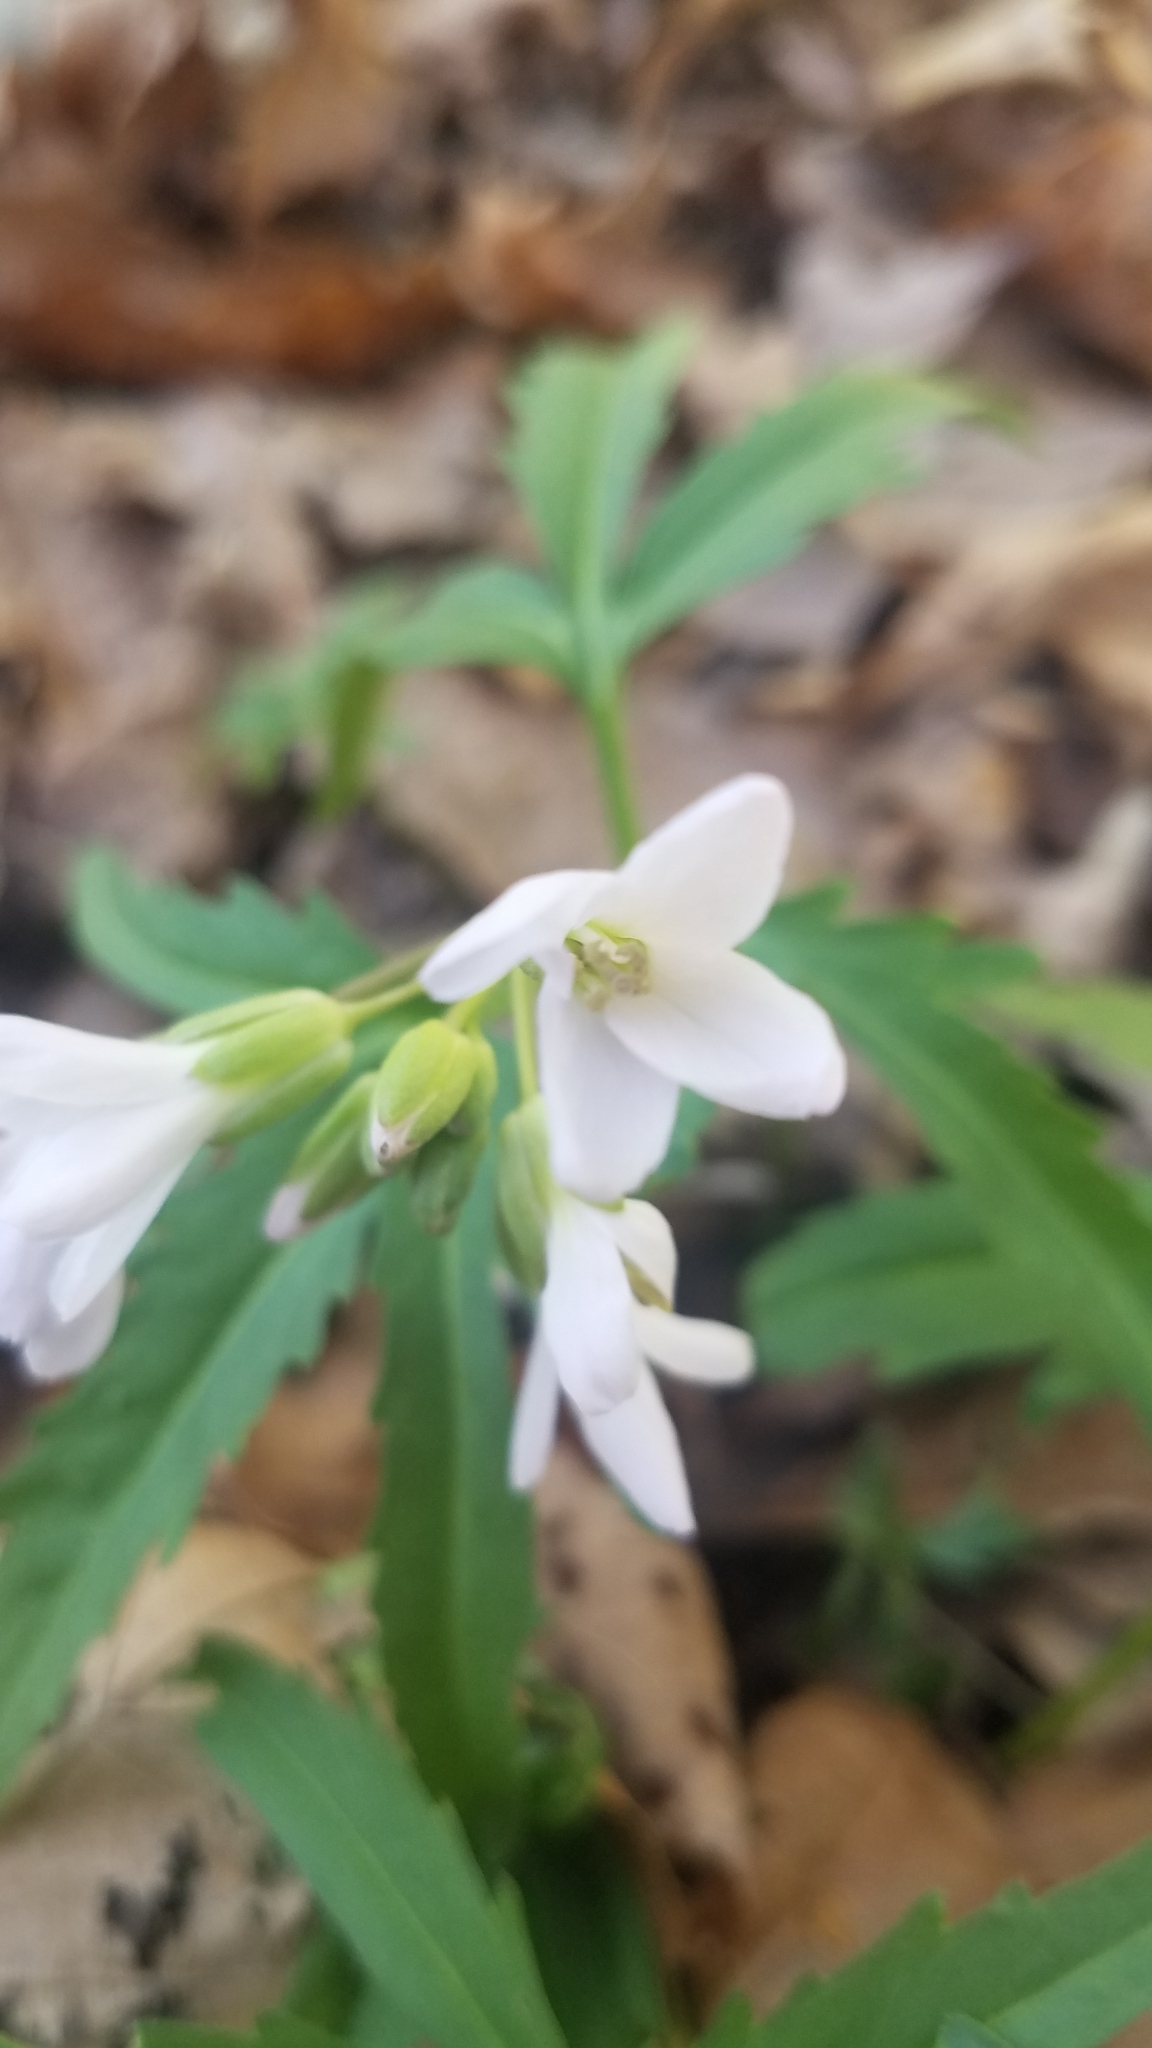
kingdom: Plantae
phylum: Tracheophyta
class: Magnoliopsida
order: Brassicales
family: Brassicaceae
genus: Cardamine
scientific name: Cardamine concatenata
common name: Cut-leaf toothcup
